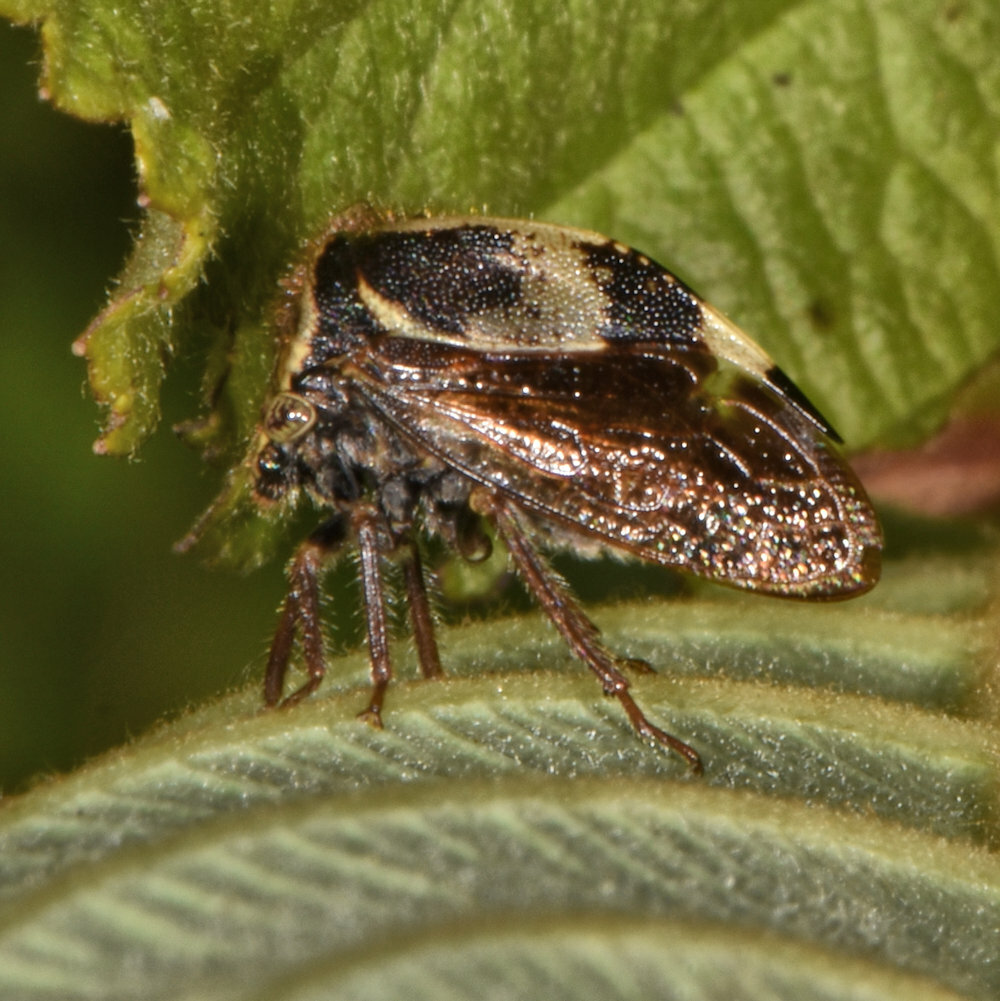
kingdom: Animalia
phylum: Arthropoda
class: Insecta
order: Hemiptera
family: Membracidae
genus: Stictocephala
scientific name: Stictocephala diceros
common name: Two-horned treehopper
